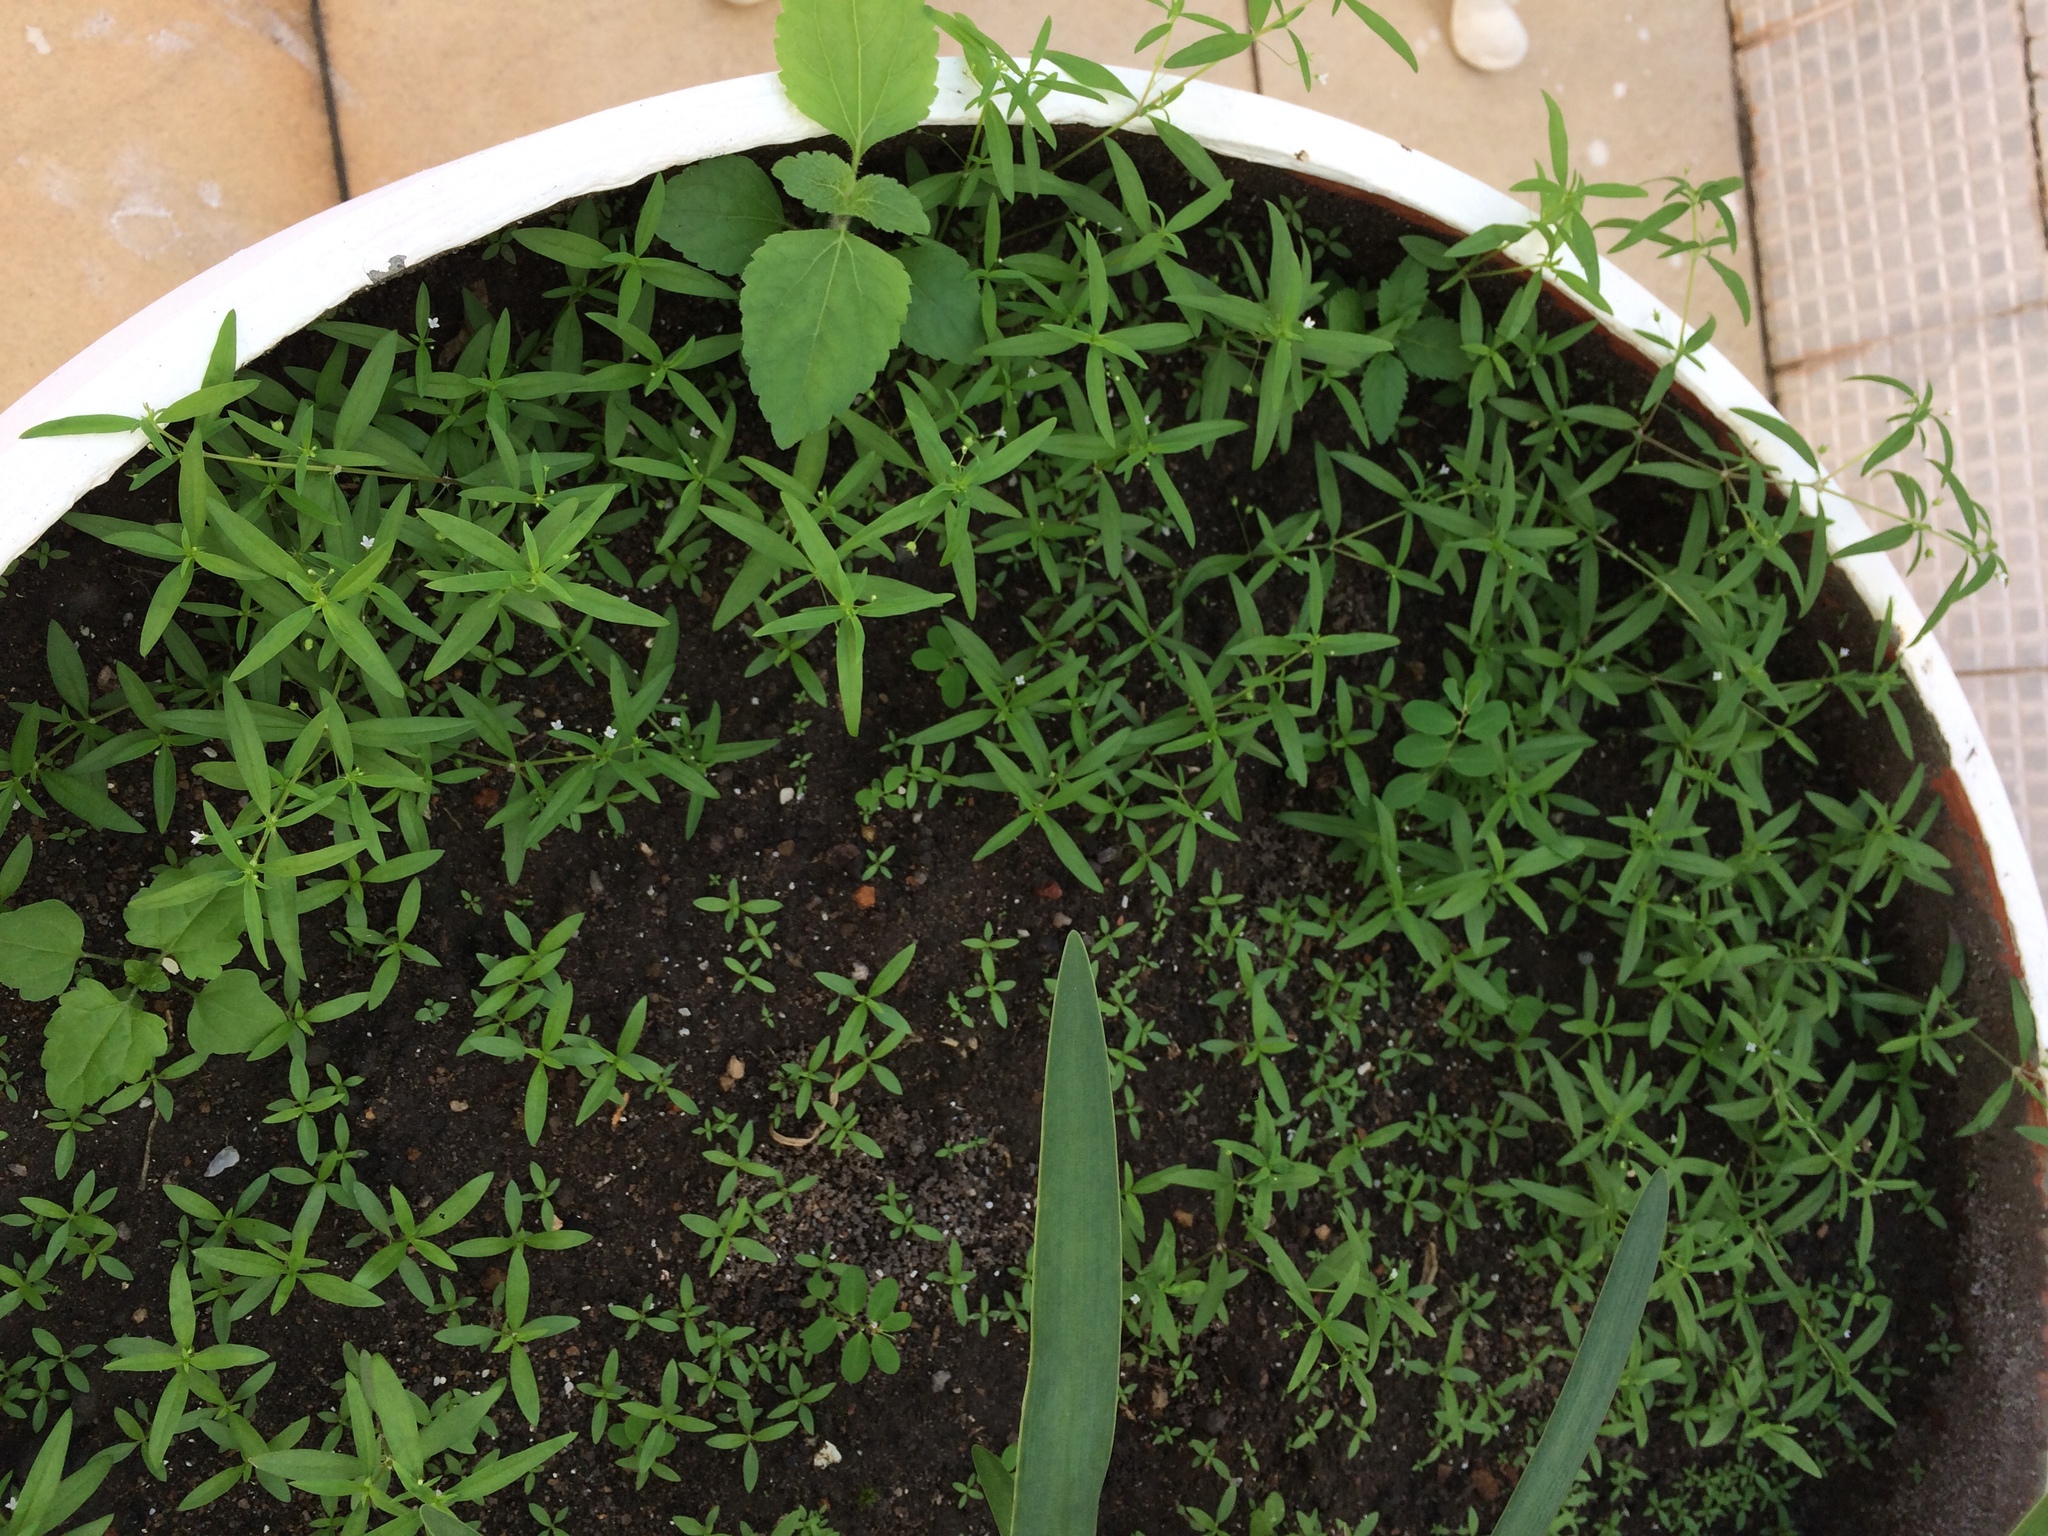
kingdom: Plantae
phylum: Tracheophyta
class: Magnoliopsida
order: Gentianales
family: Rubiaceae
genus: Oldenlandia
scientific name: Oldenlandia corymbosa
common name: Flat-top mille graines
